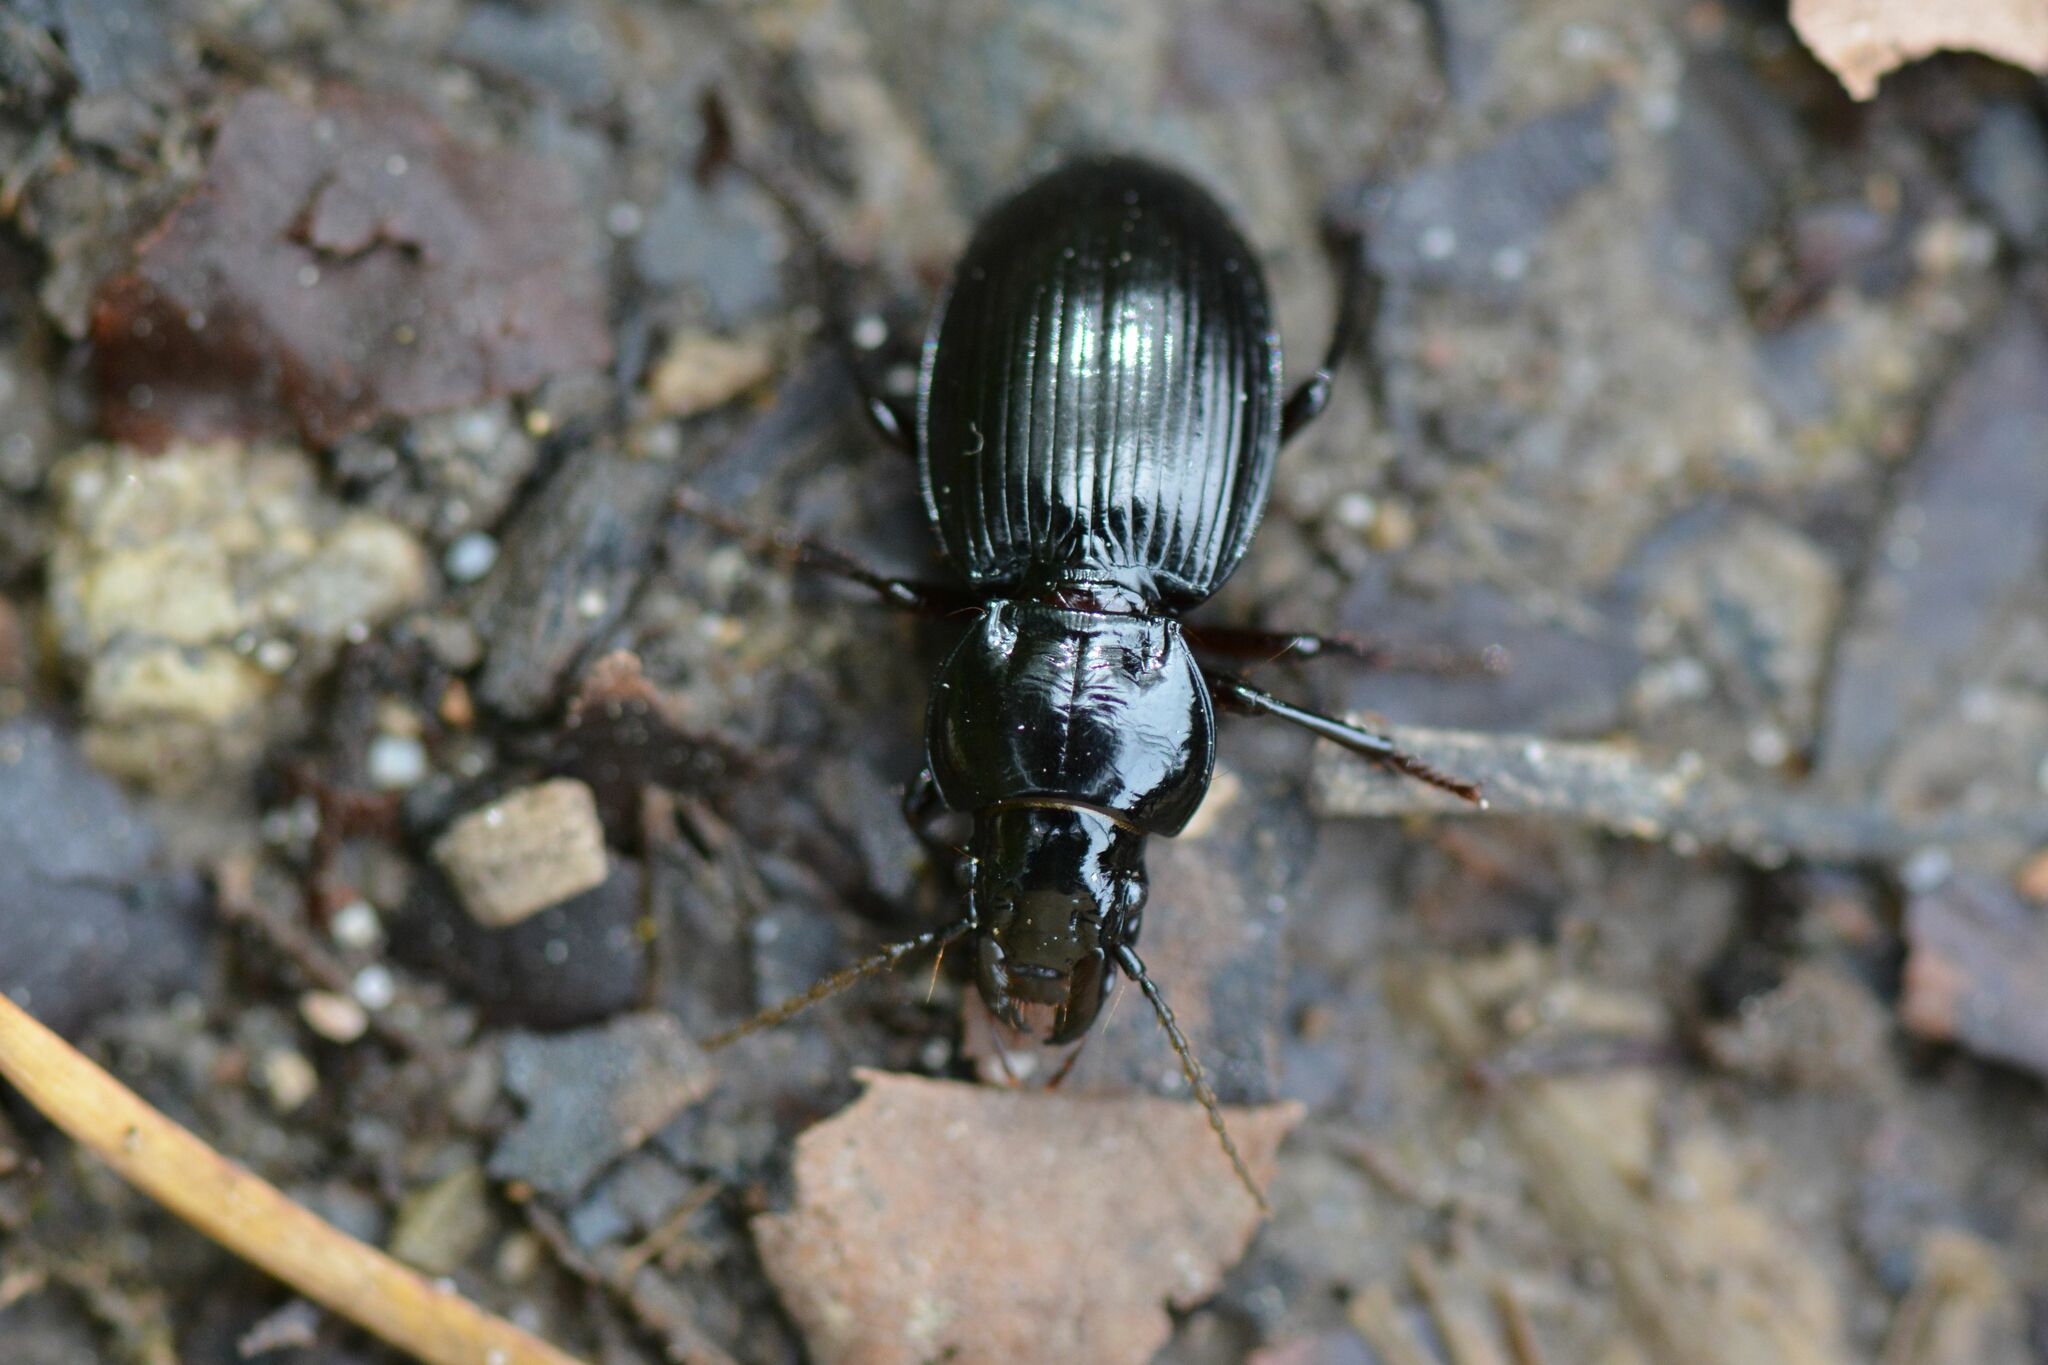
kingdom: Animalia
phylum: Arthropoda
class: Insecta
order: Coleoptera
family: Carabidae
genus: Molops
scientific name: Molops piceus
